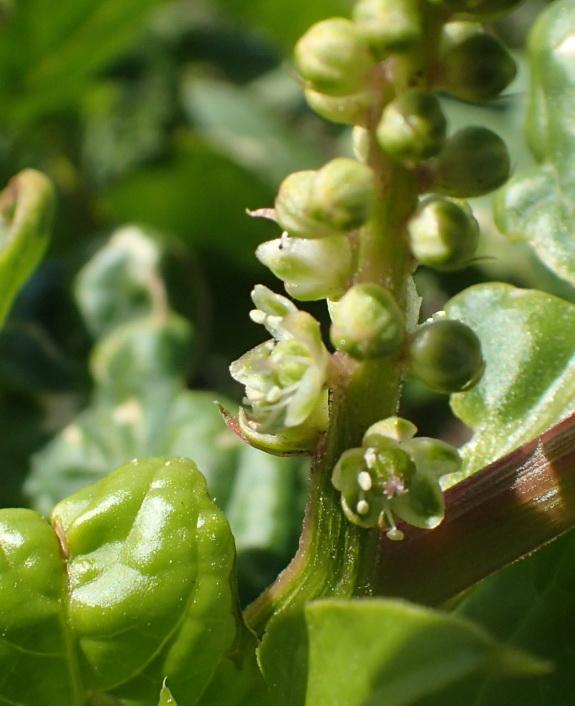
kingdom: Plantae
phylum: Tracheophyta
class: Magnoliopsida
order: Caryophyllales
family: Phytolaccaceae
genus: Phytolacca
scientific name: Phytolacca icosandra
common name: Button pokeweed
